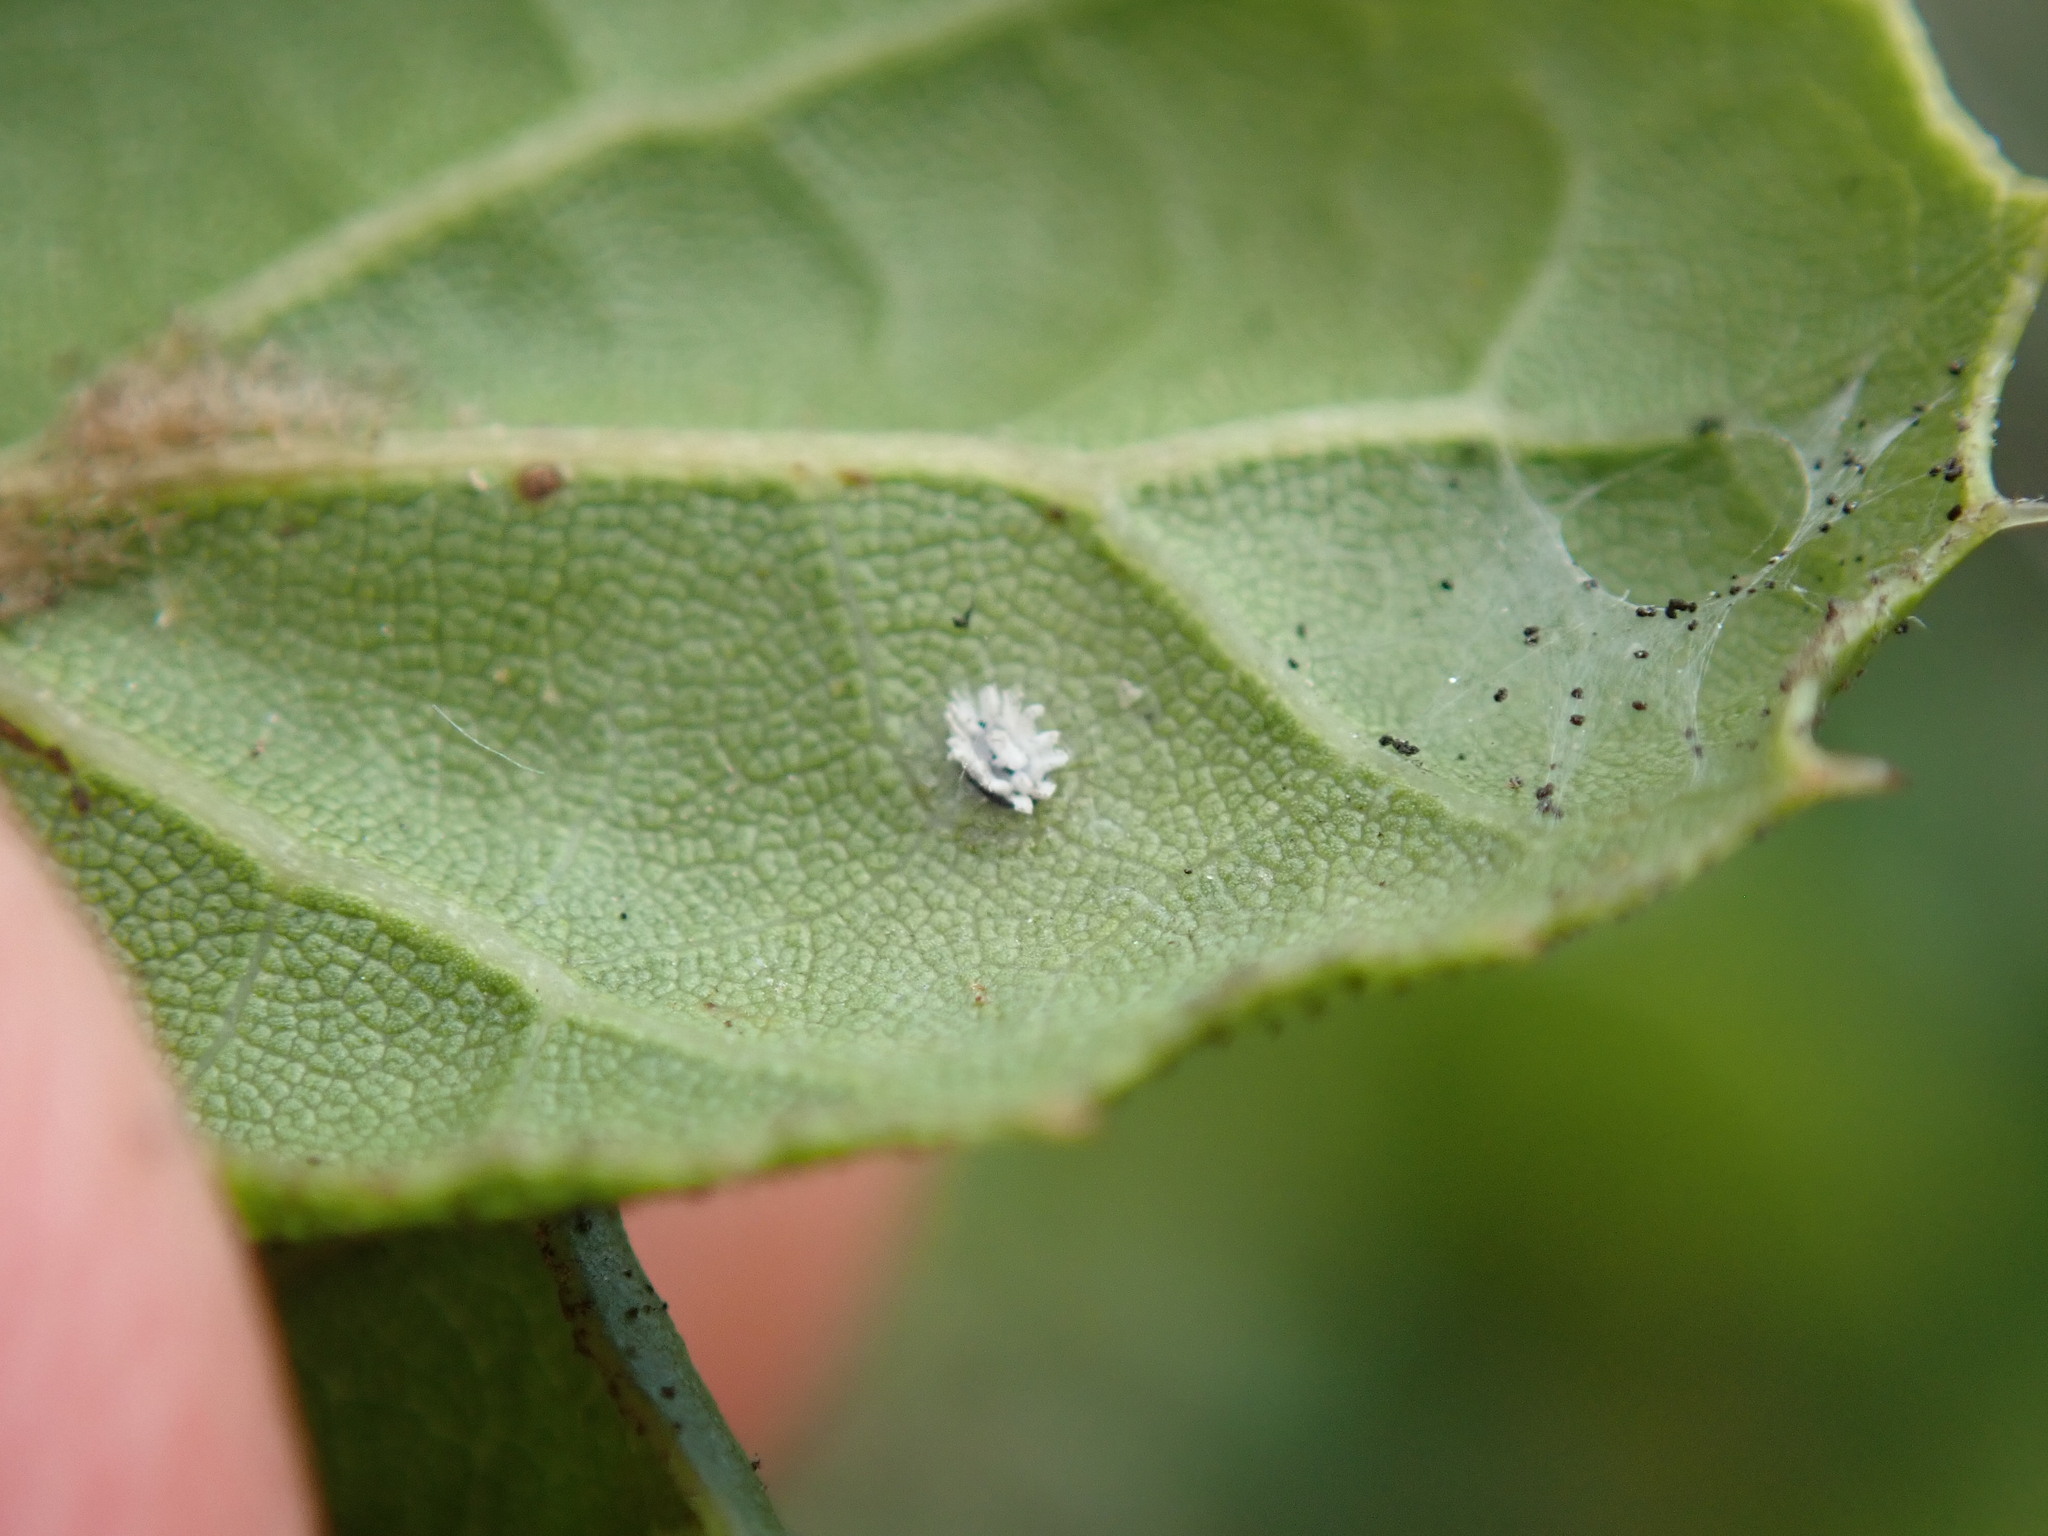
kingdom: Animalia
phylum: Arthropoda
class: Insecta
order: Hemiptera
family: Aleyrodidae
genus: Aleuroplatus
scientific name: Aleuroplatus coronata
